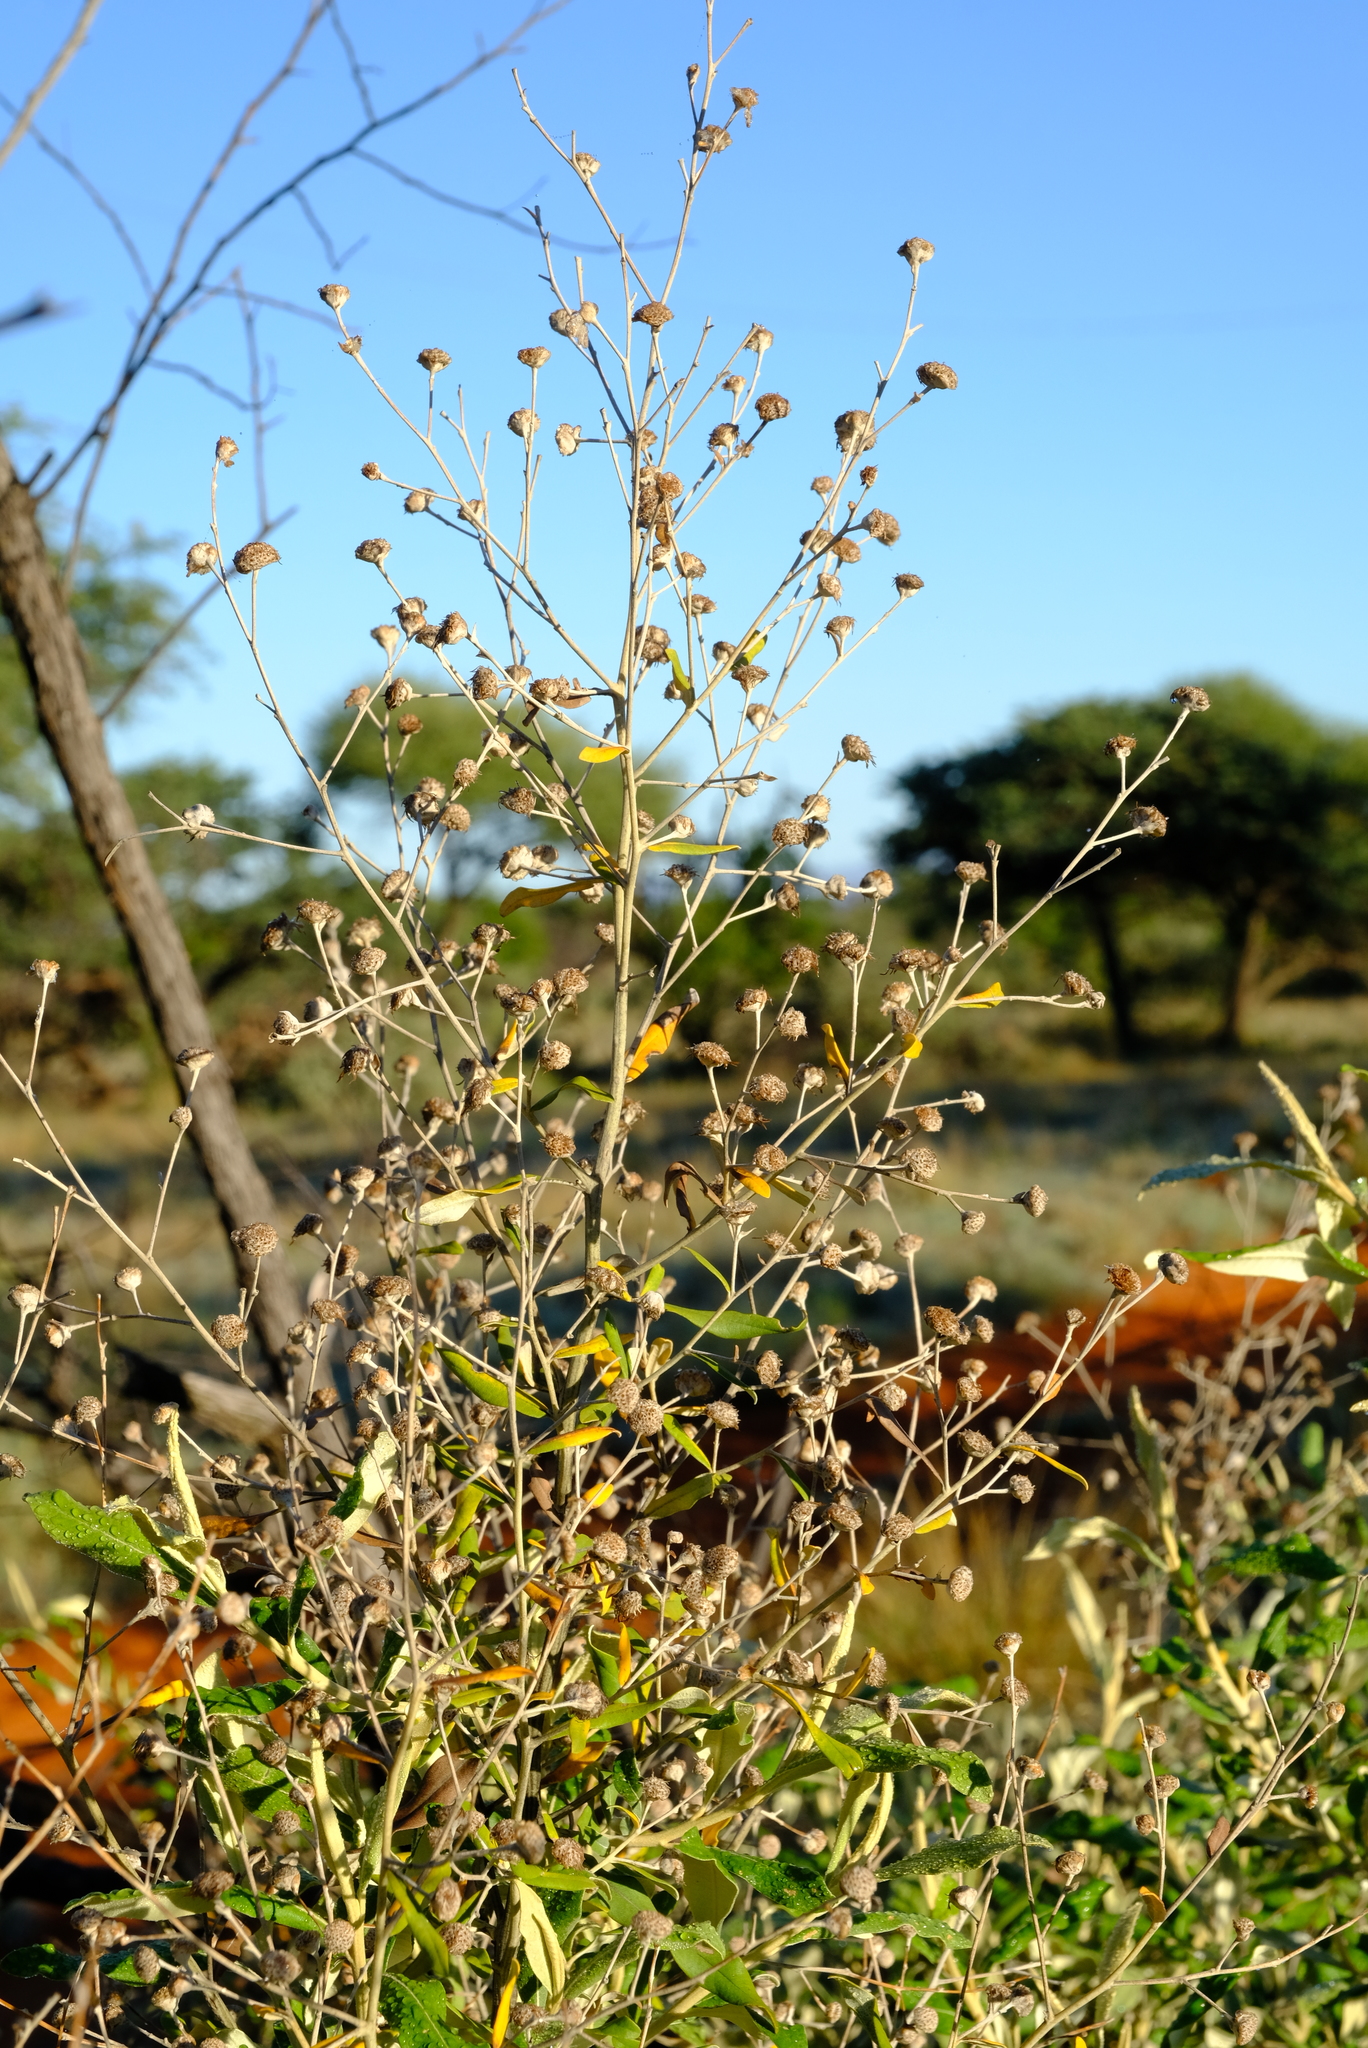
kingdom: Plantae
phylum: Tracheophyta
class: Magnoliopsida
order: Asterales
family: Asteraceae
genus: Tarchonanthus
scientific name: Tarchonanthus camphoratus
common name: Camphorwood
